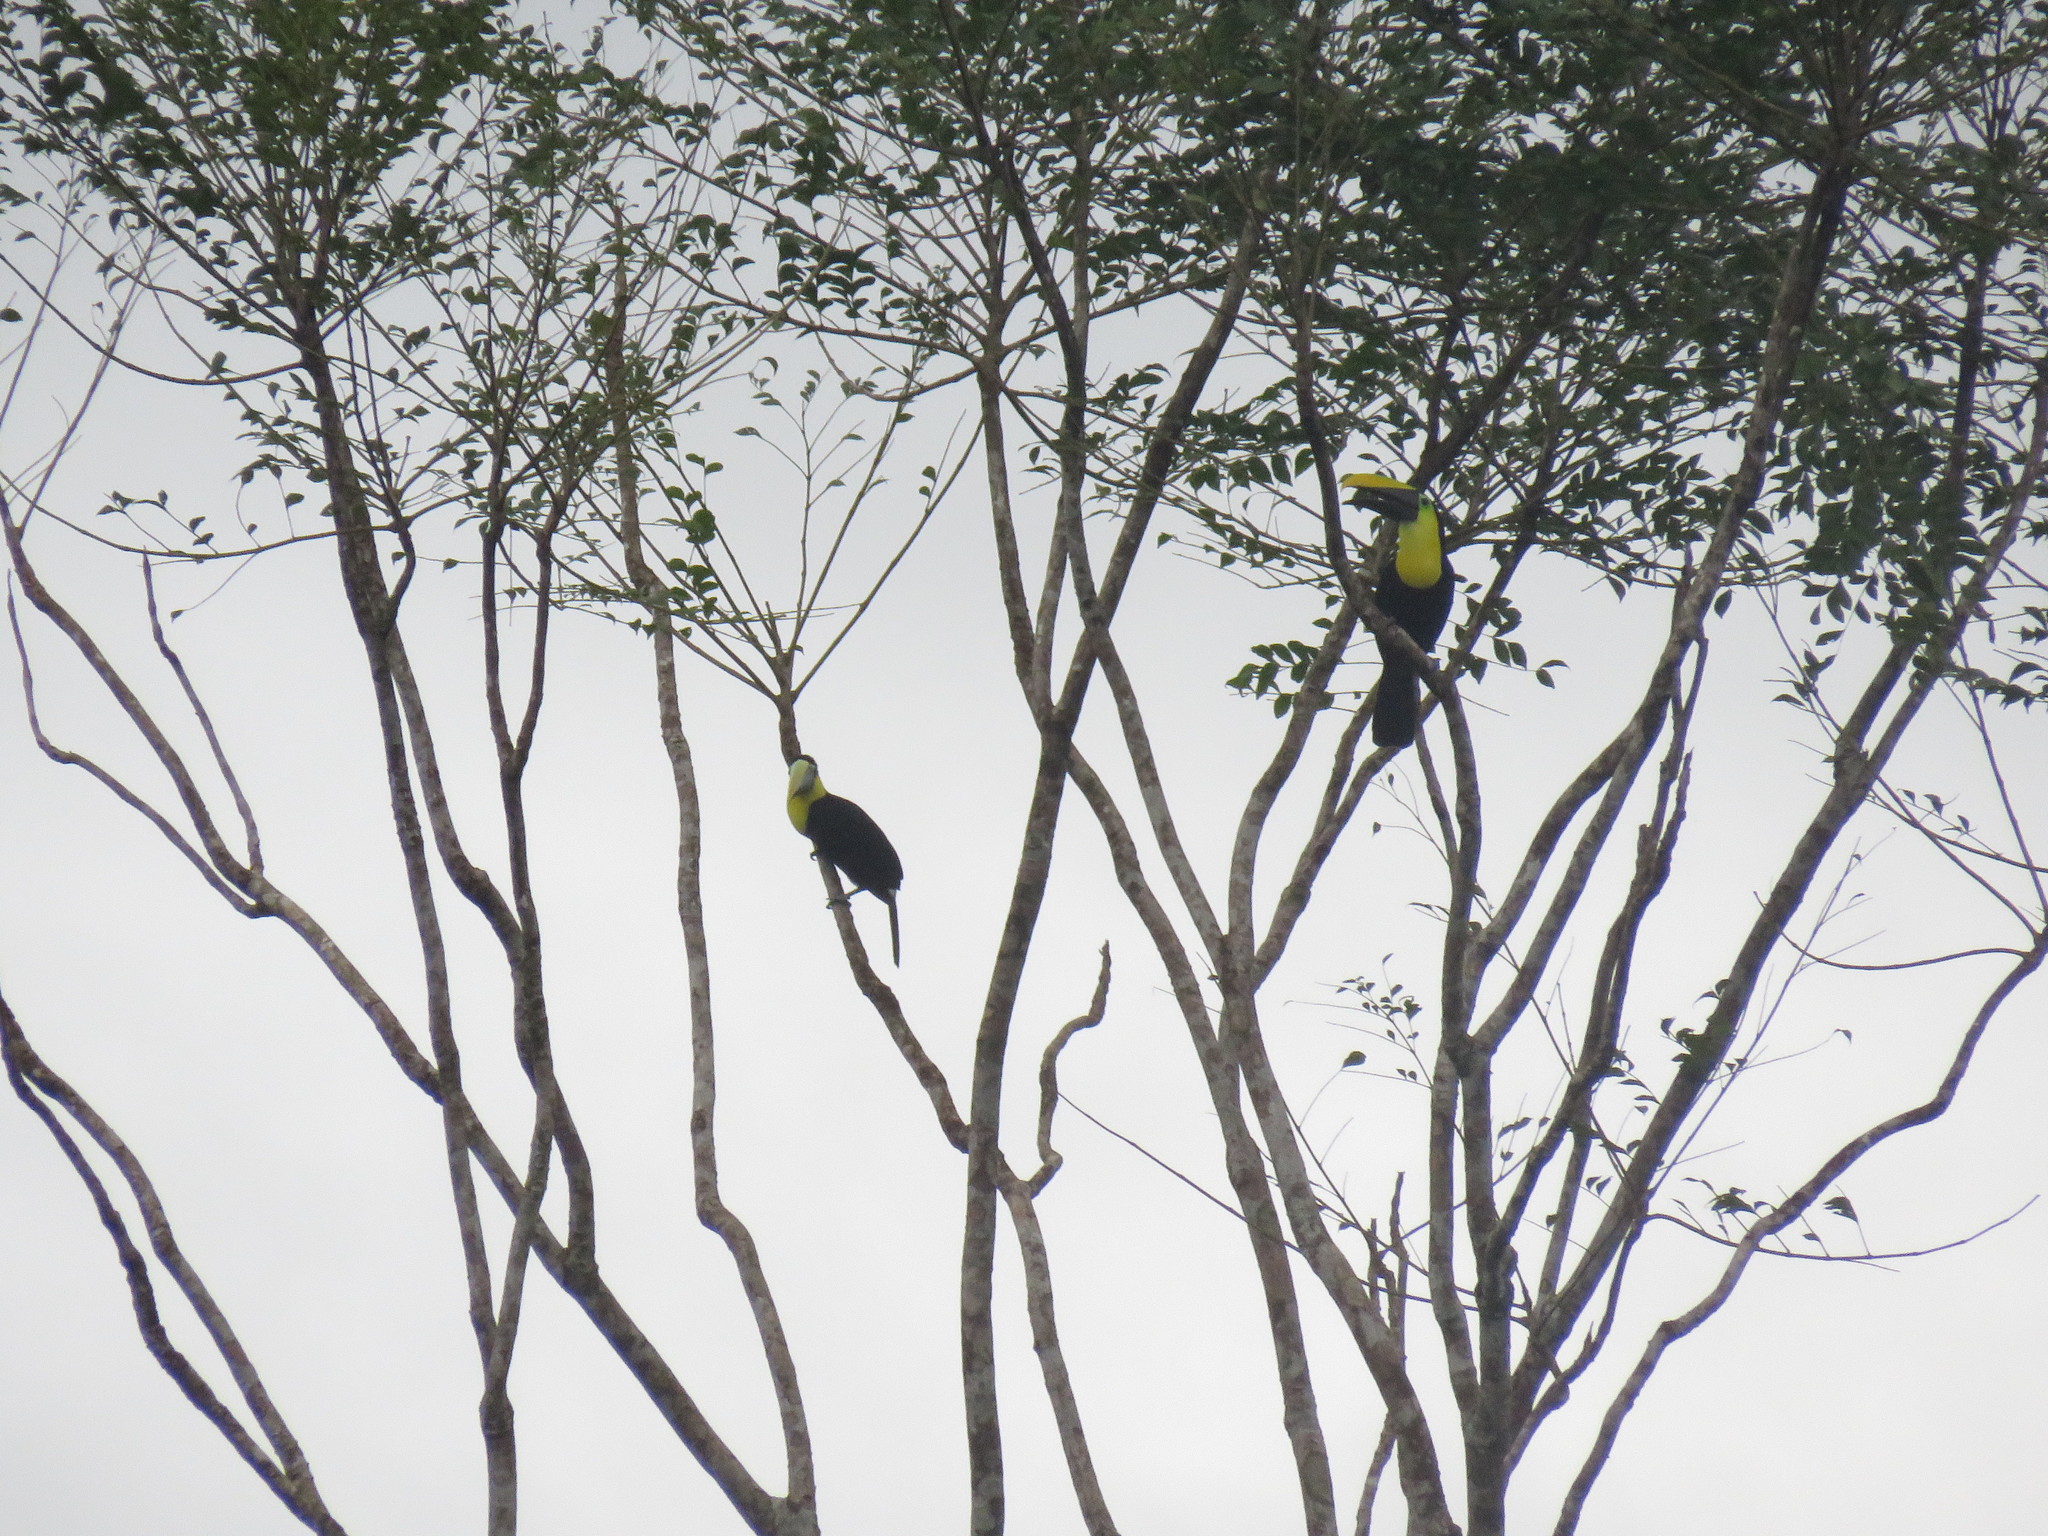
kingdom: Animalia
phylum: Chordata
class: Aves
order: Piciformes
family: Ramphastidae
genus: Ramphastos
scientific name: Ramphastos ambiguus
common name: Yellow-throated toucan
